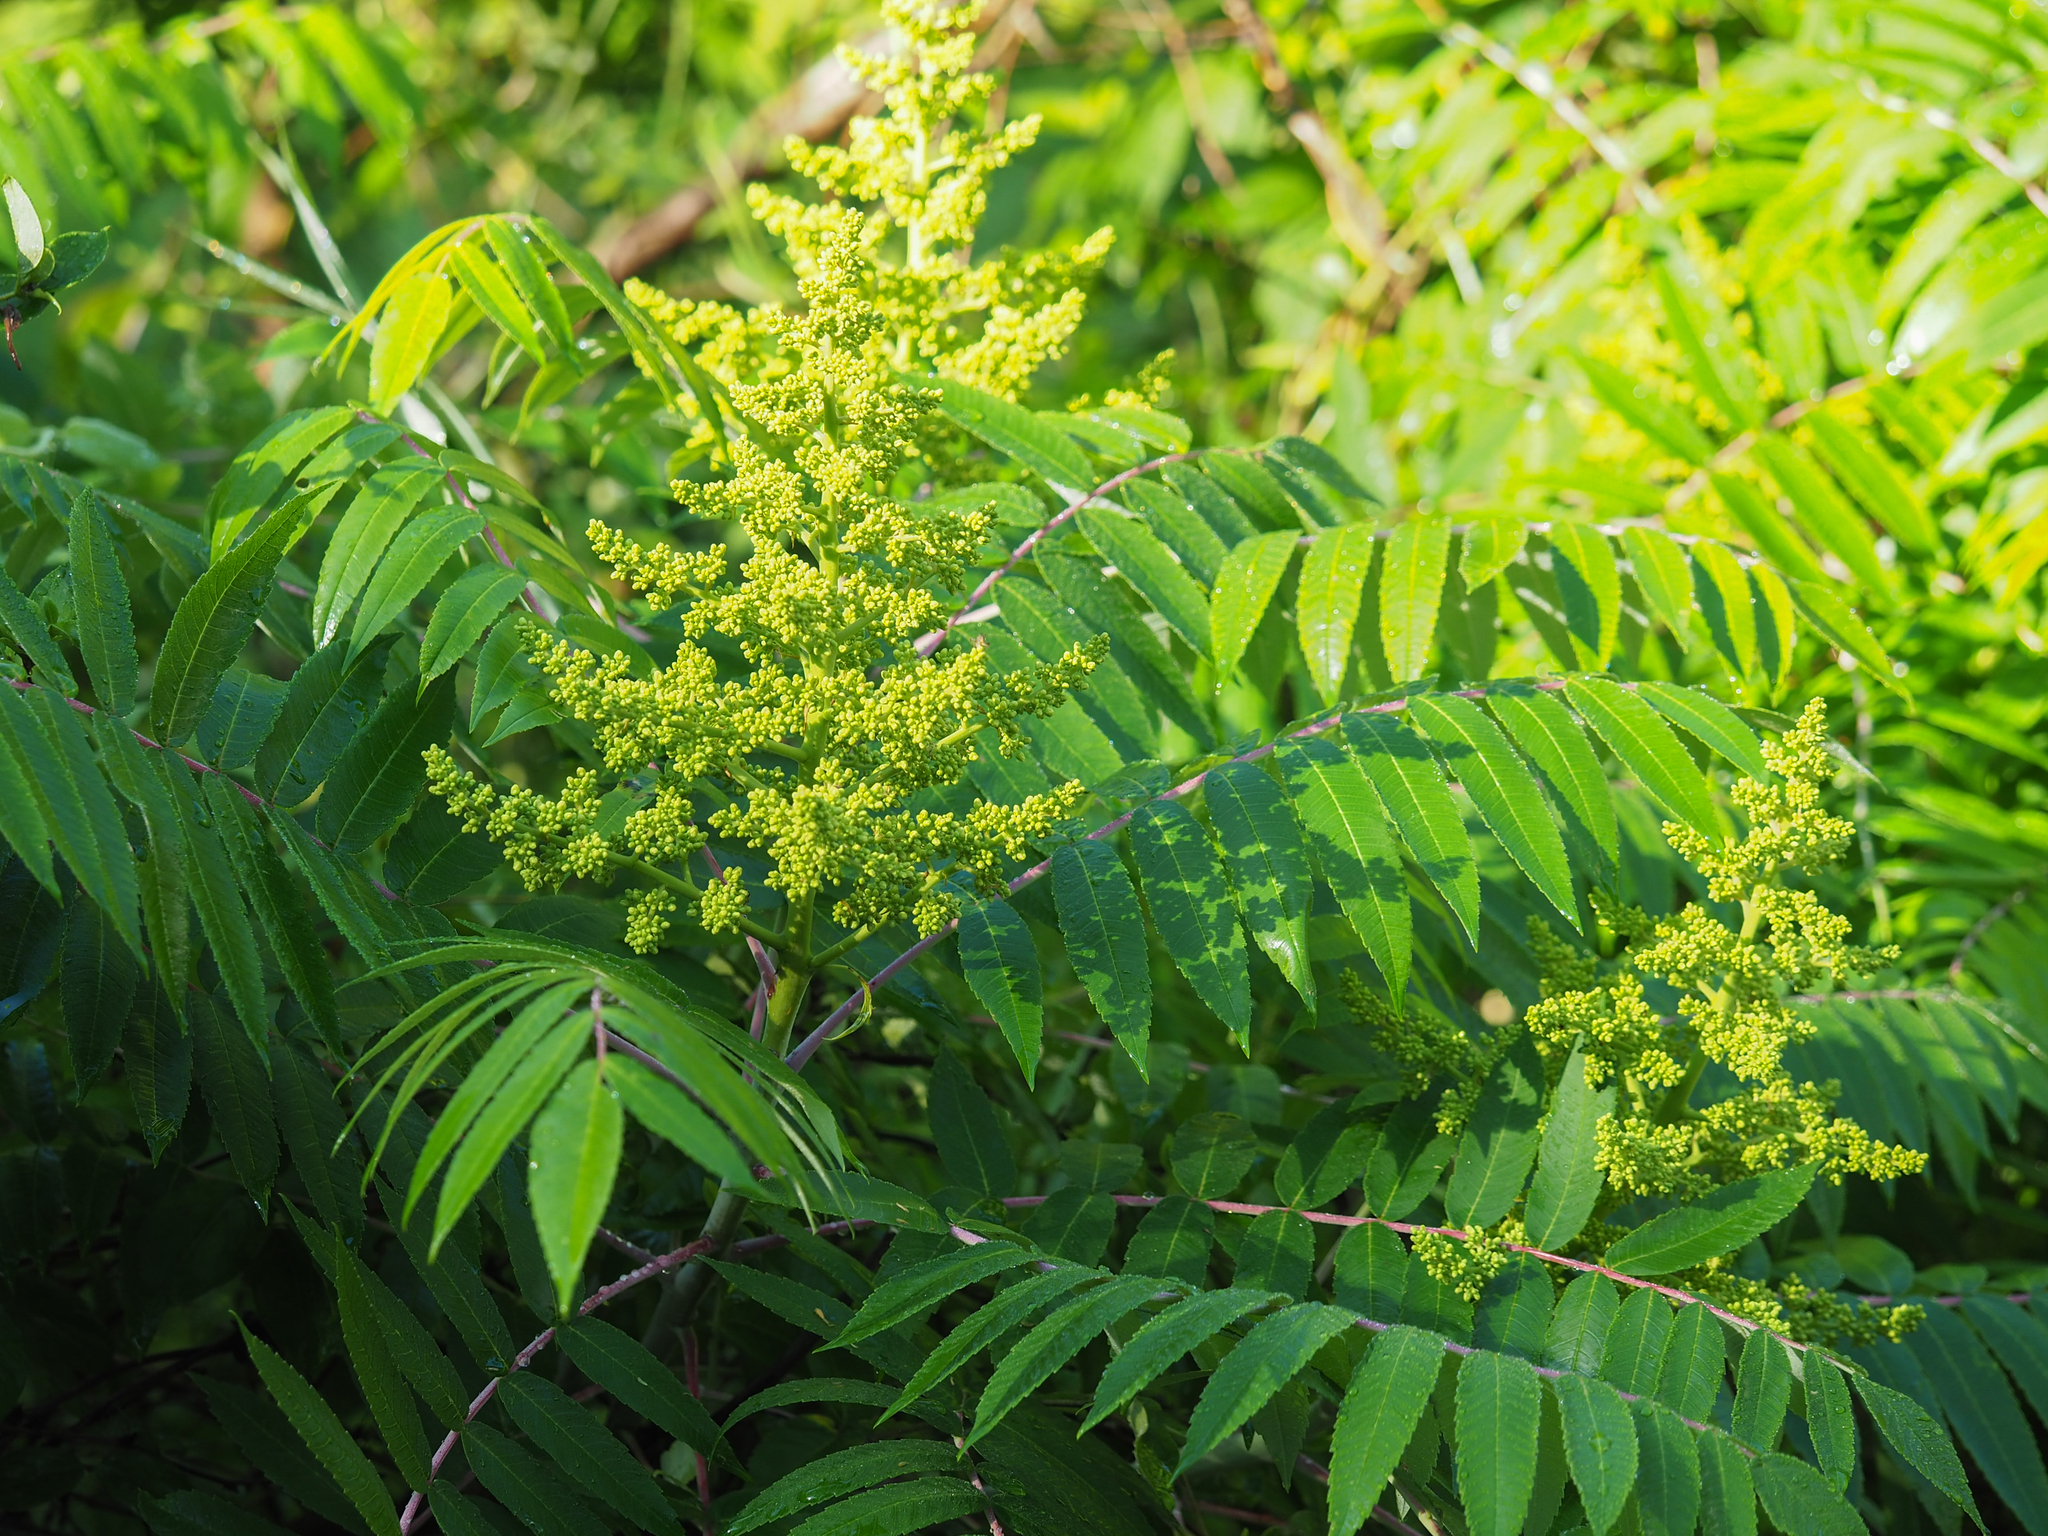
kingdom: Plantae
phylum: Tracheophyta
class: Magnoliopsida
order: Sapindales
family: Anacardiaceae
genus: Rhus
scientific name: Rhus glabra
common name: Scarlet sumac
